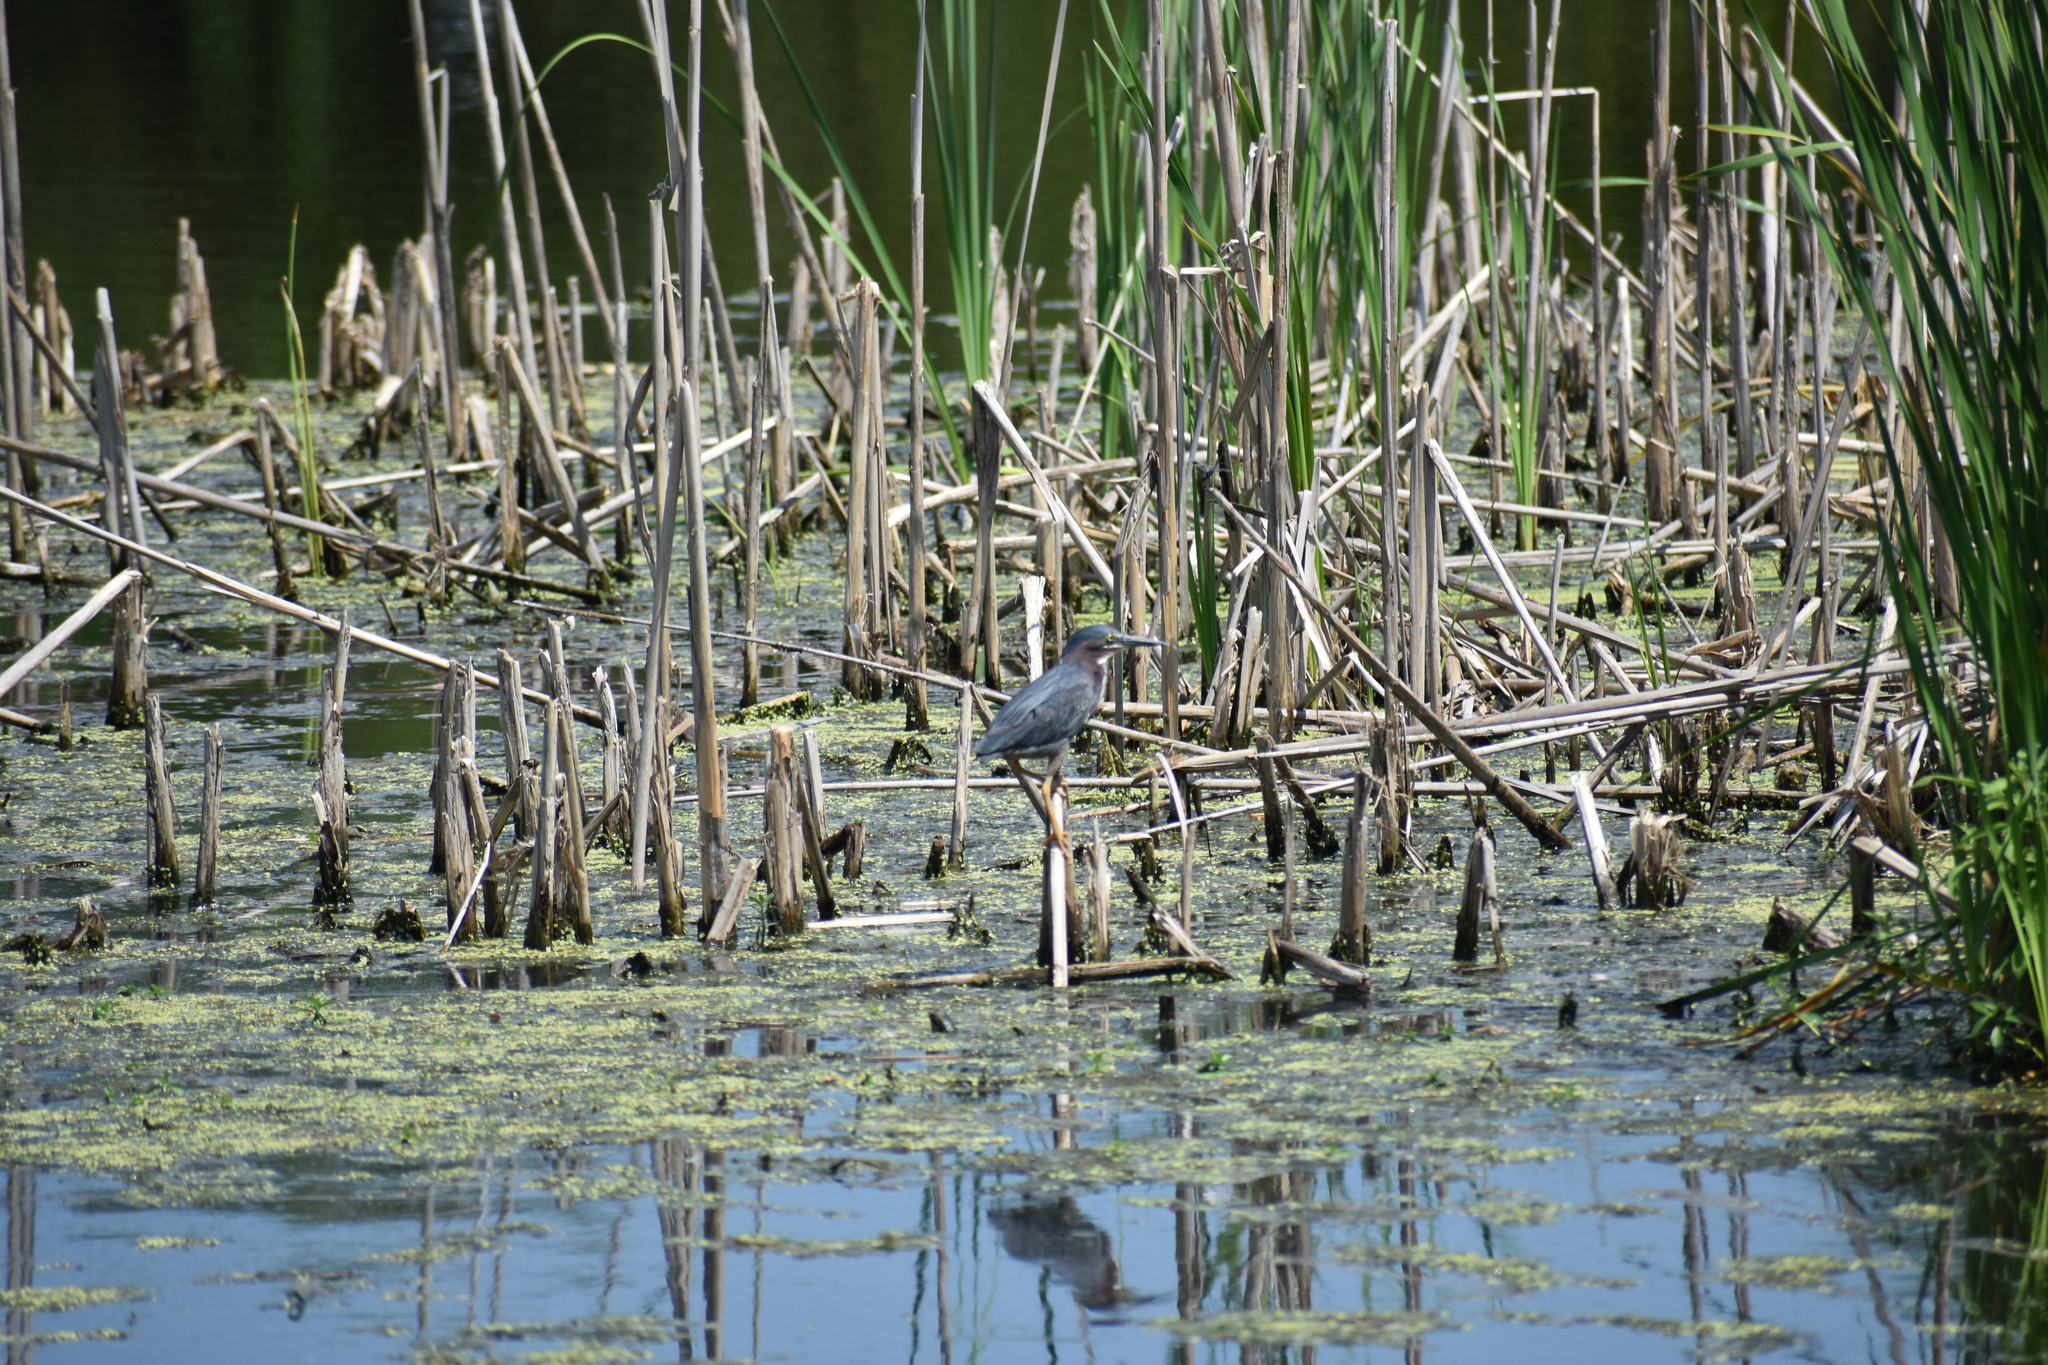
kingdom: Animalia
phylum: Chordata
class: Aves
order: Pelecaniformes
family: Ardeidae
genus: Butorides
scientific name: Butorides virescens
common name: Green heron
